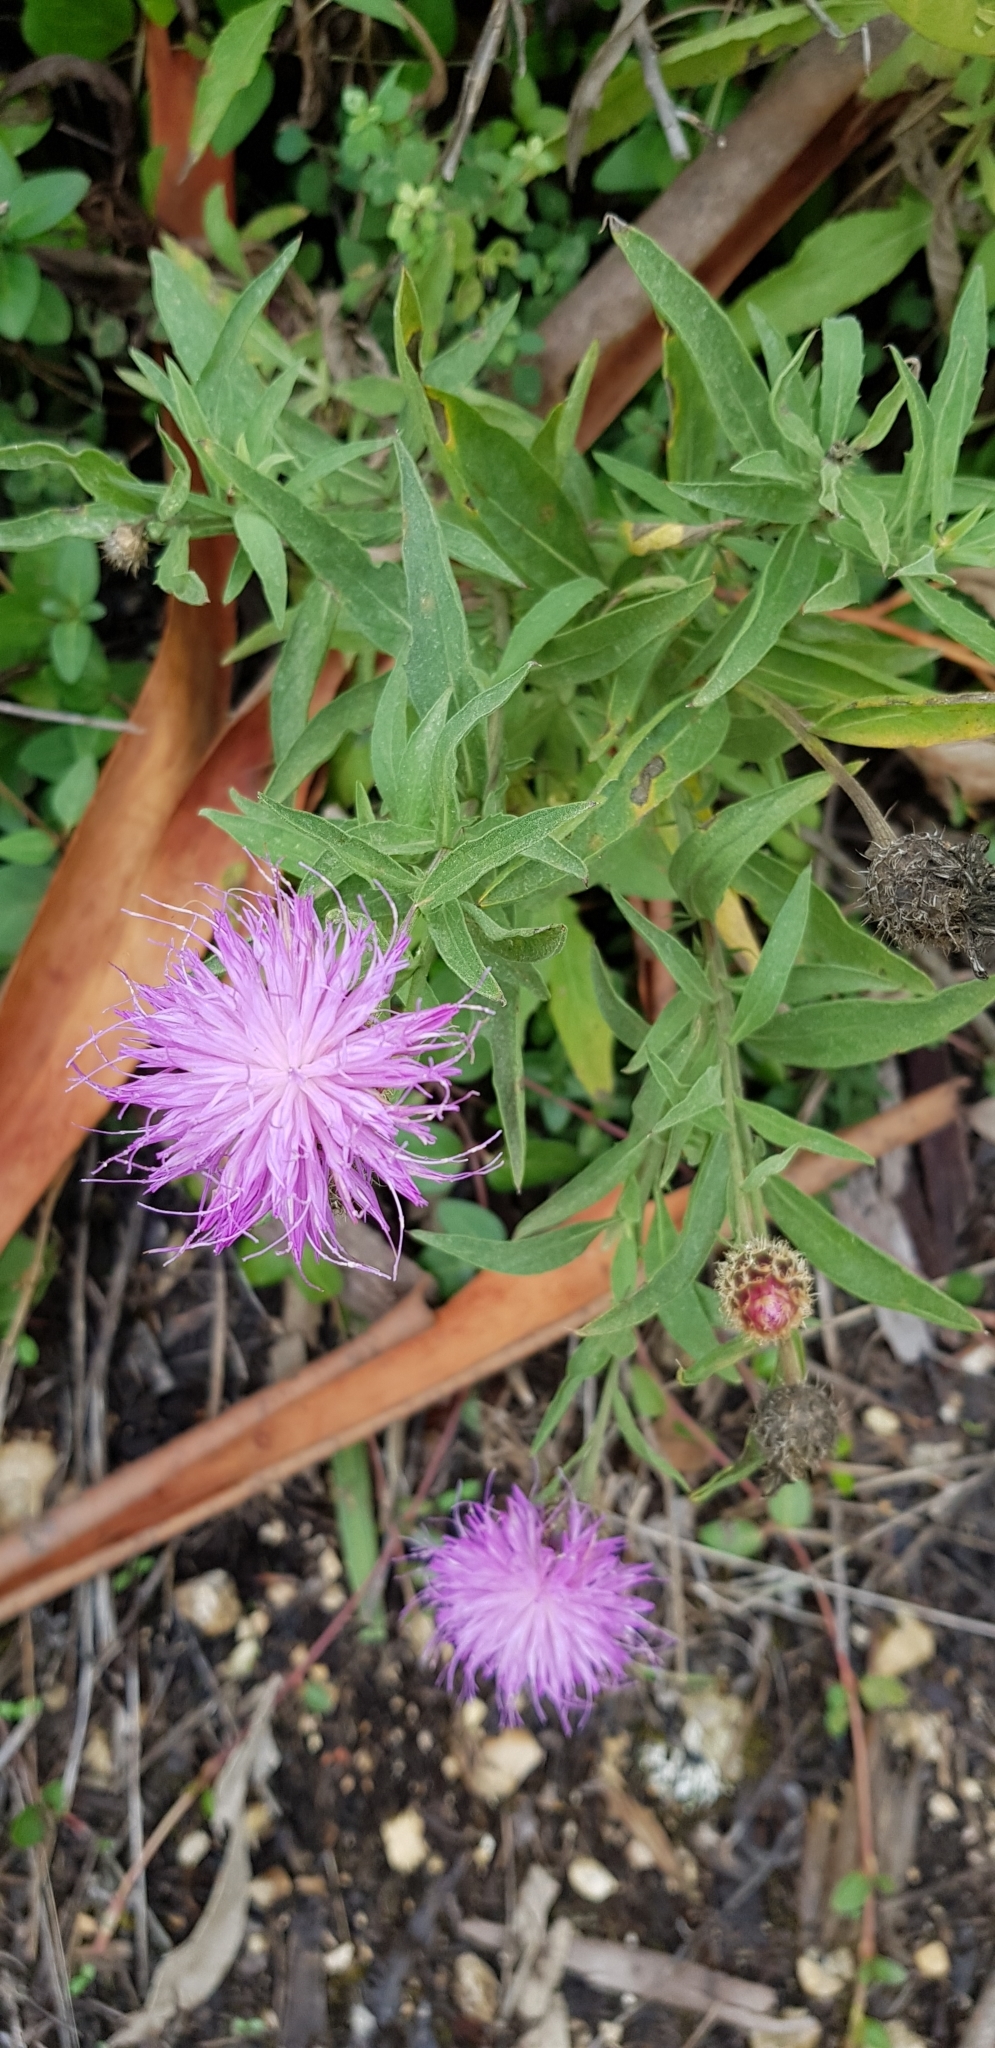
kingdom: Plantae
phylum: Tracheophyta
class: Magnoliopsida
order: Asterales
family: Asteraceae
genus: Cheirolophus
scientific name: Cheirolophus sempervirens
